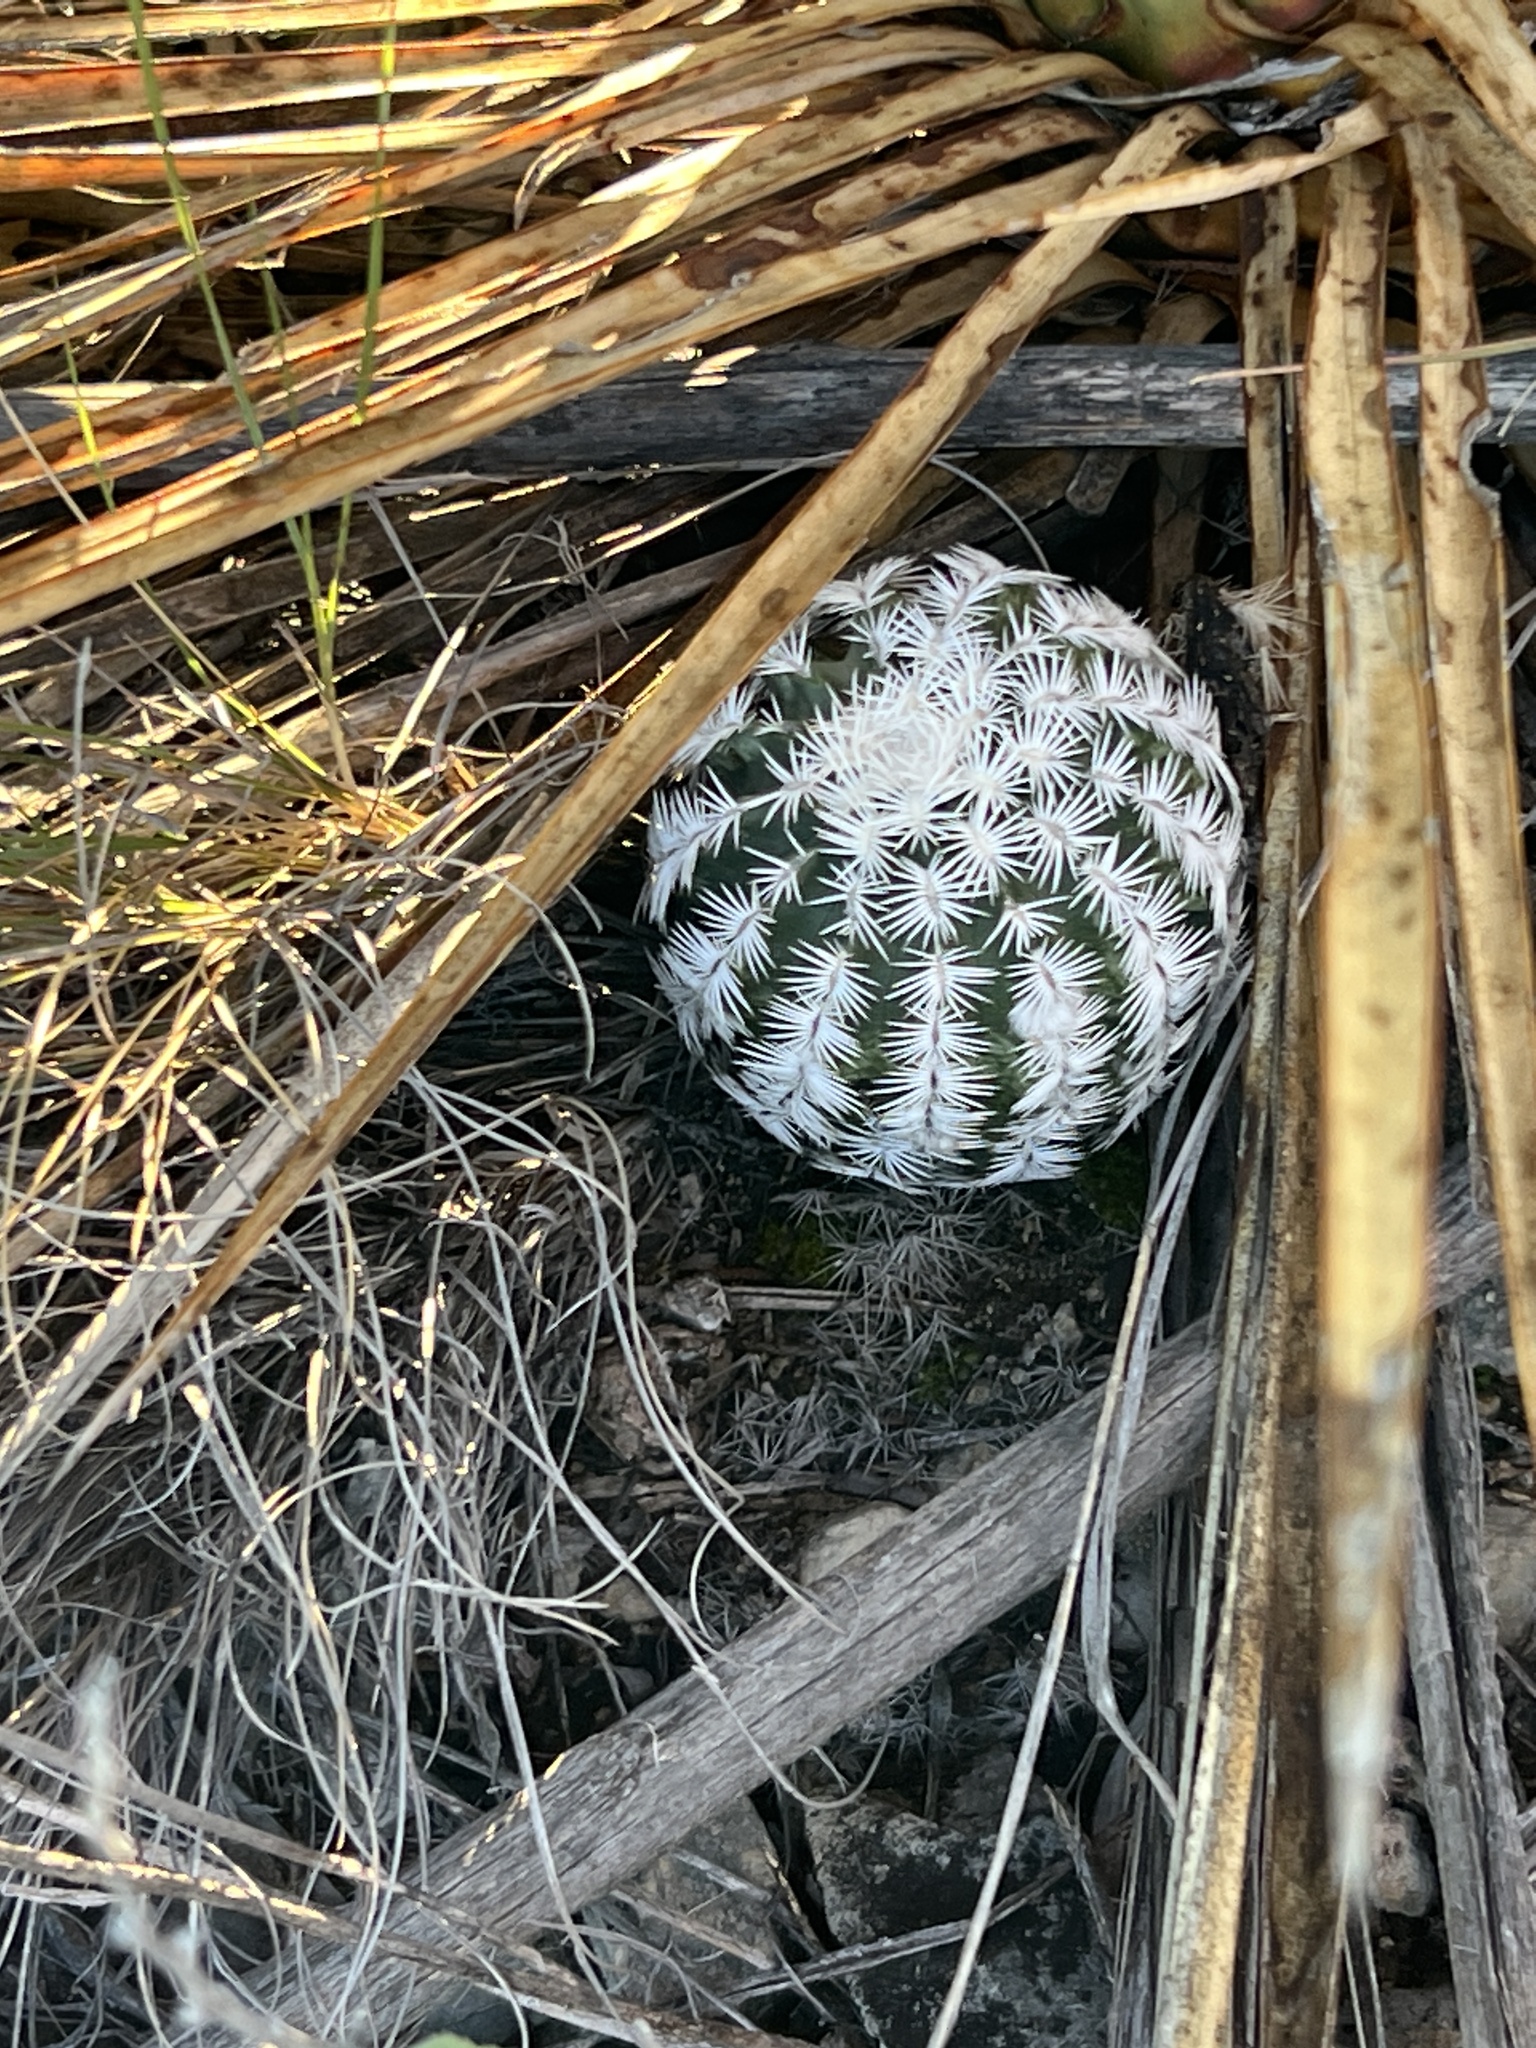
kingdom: Plantae
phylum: Tracheophyta
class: Magnoliopsida
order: Caryophyllales
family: Cactaceae
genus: Echinocereus
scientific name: Echinocereus reichenbachii
